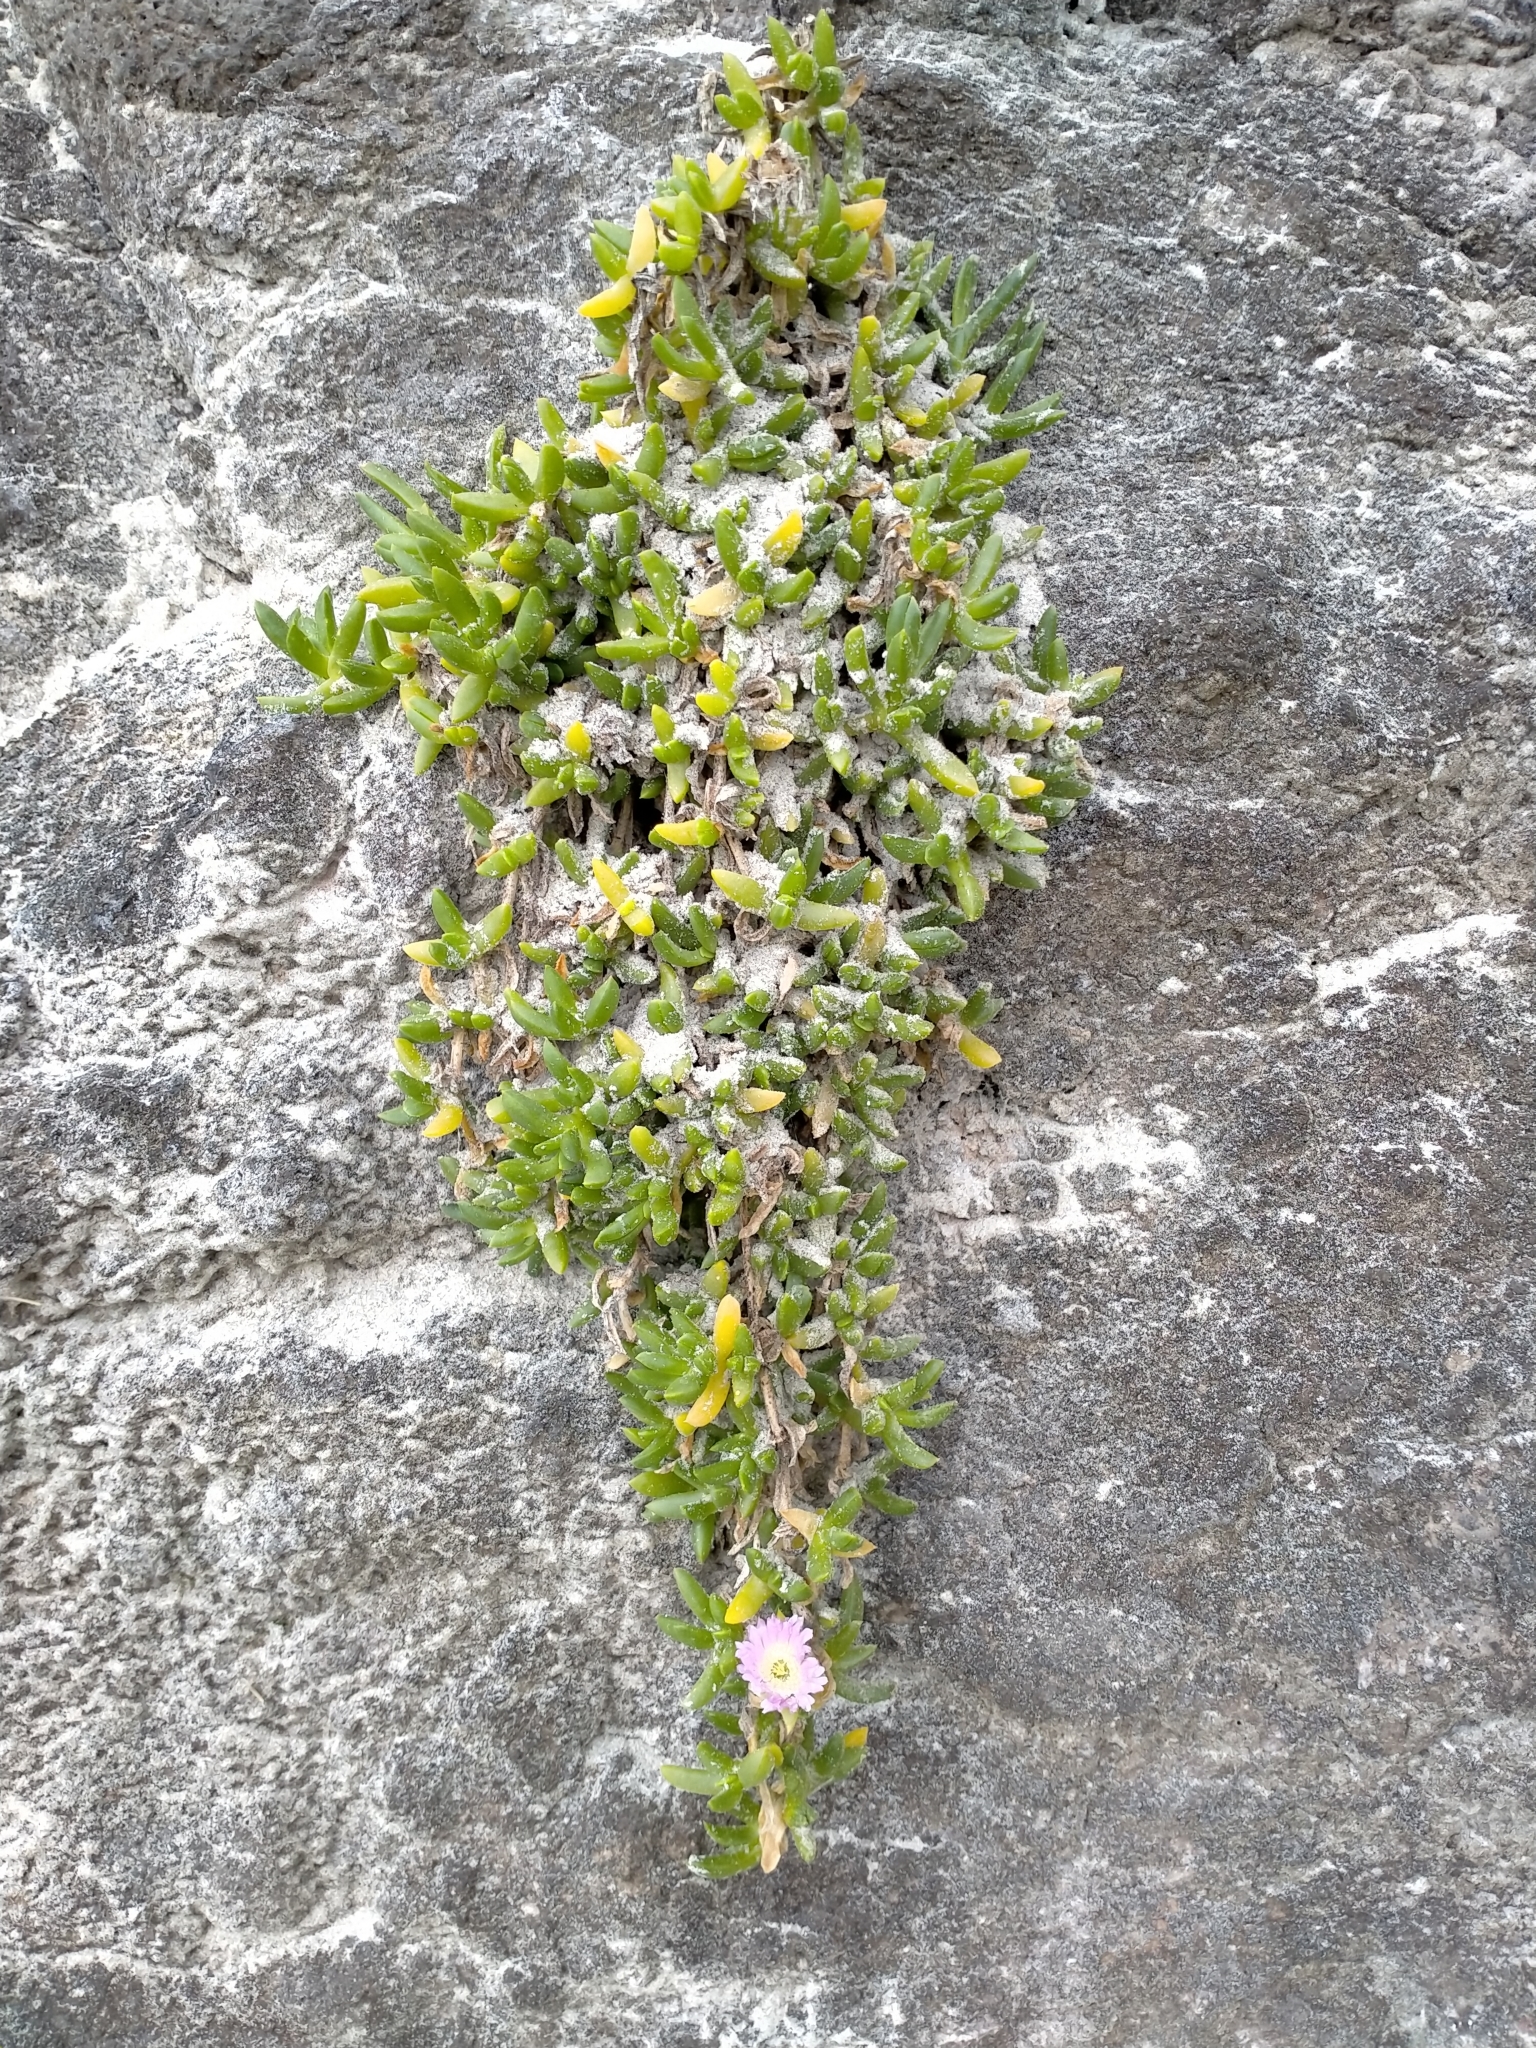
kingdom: Plantae
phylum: Tracheophyta
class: Magnoliopsida
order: Caryophyllales
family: Aizoaceae
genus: Disphyma
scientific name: Disphyma australe
